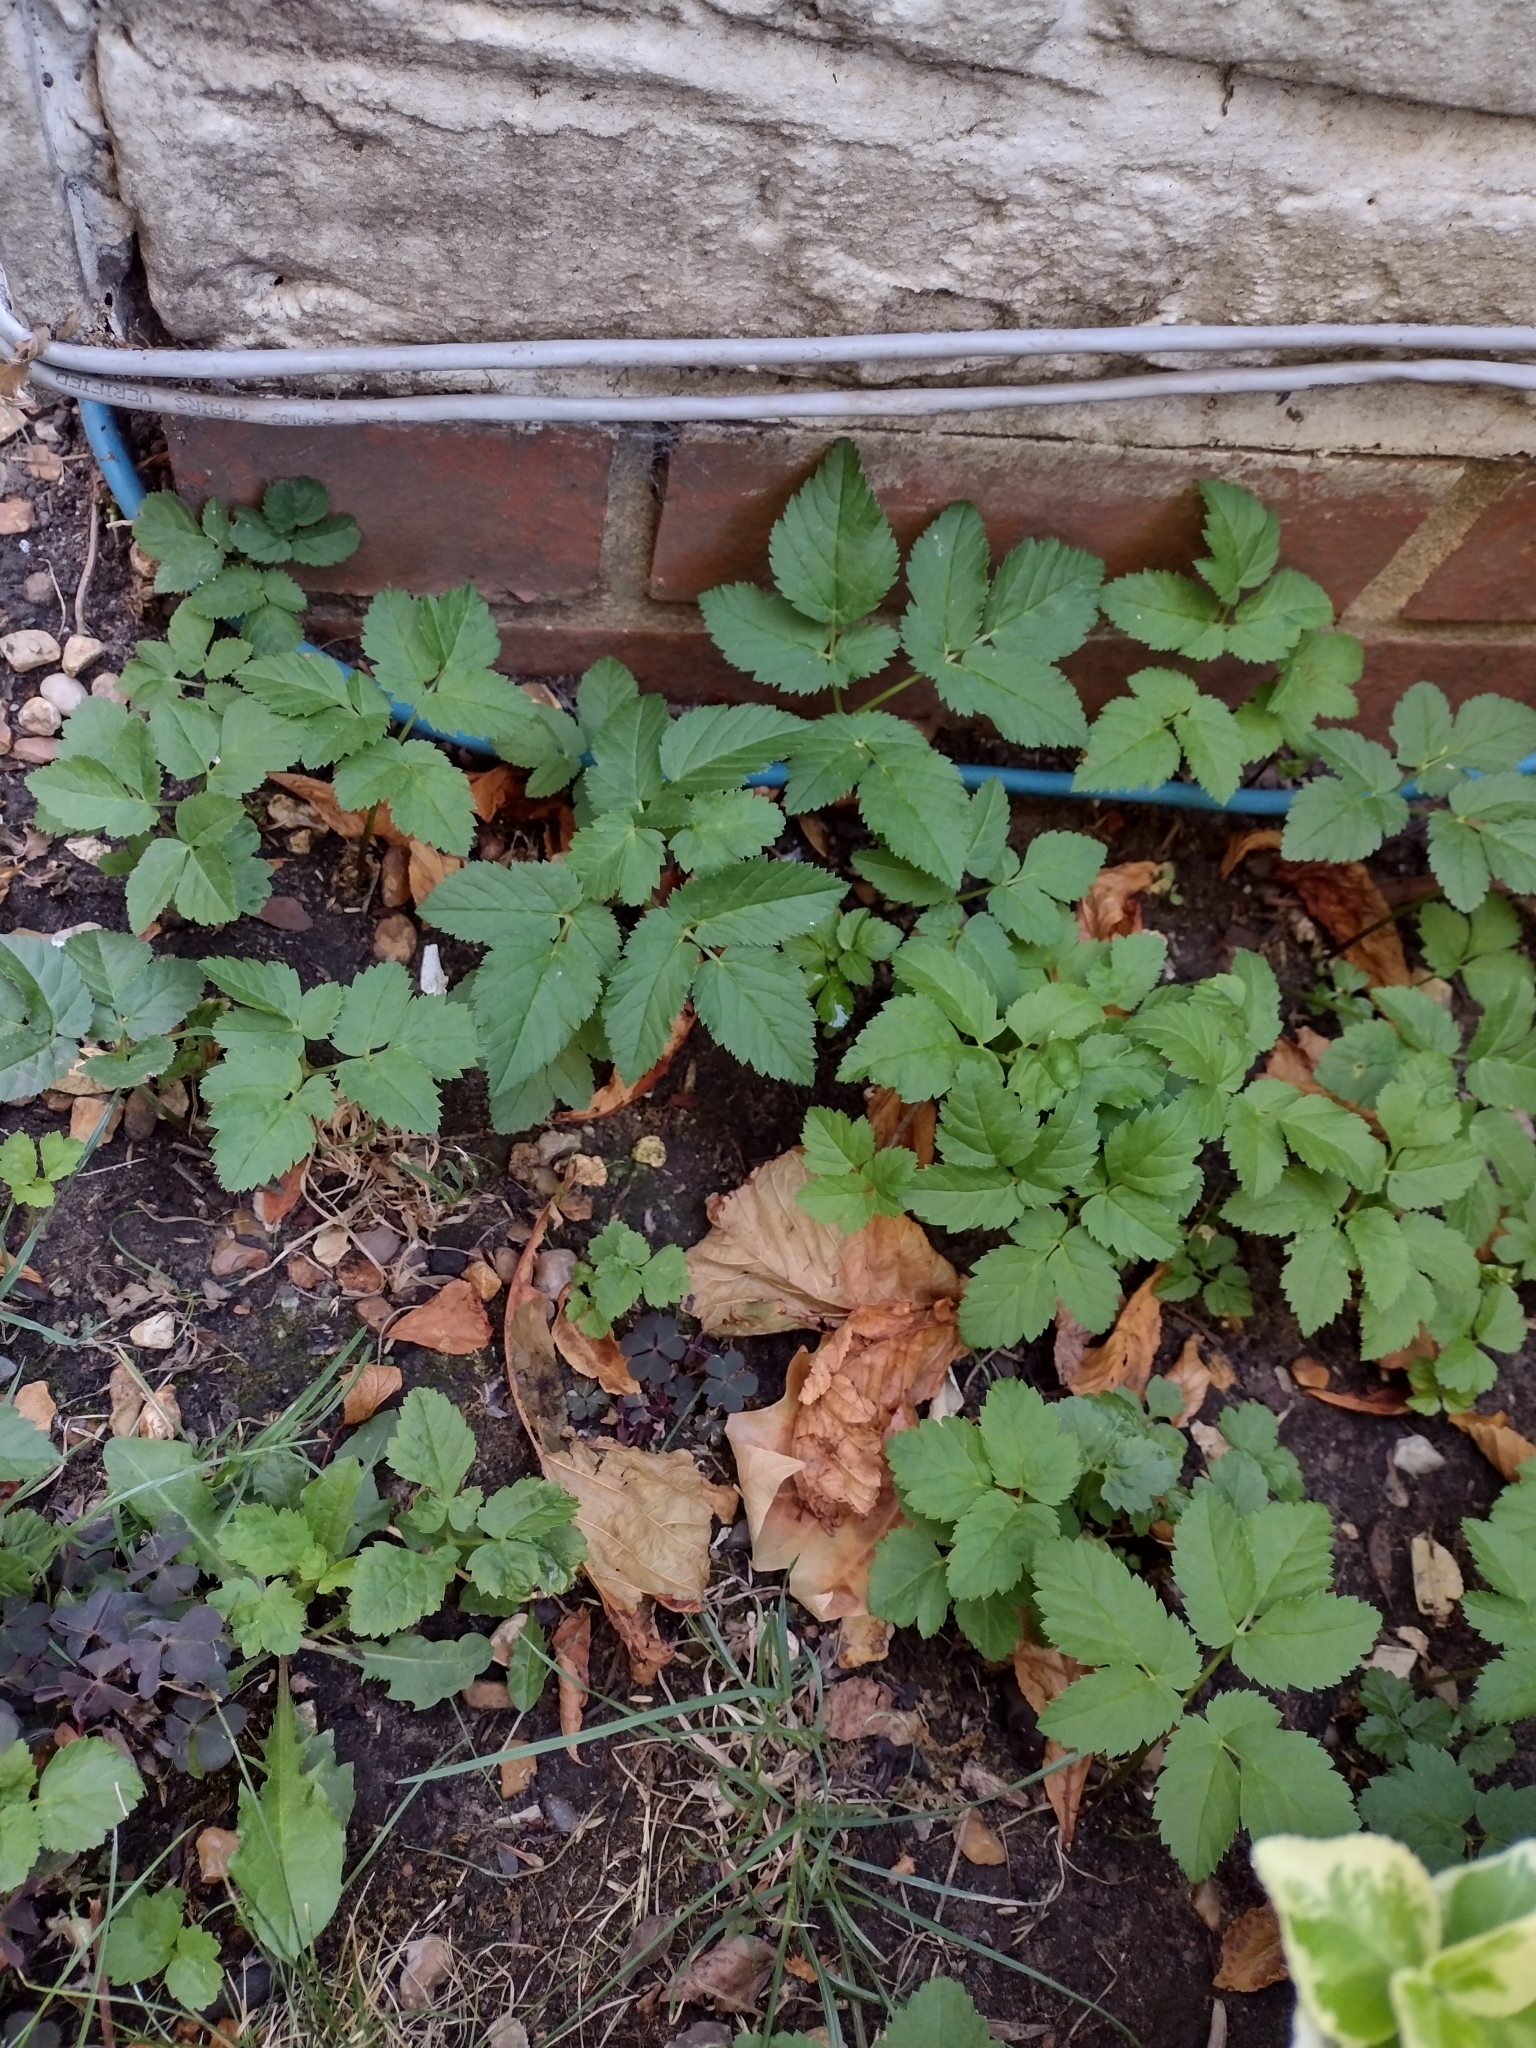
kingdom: Plantae
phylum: Tracheophyta
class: Magnoliopsida
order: Apiales
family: Apiaceae
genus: Aegopodium
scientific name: Aegopodium podagraria
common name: Ground-elder
